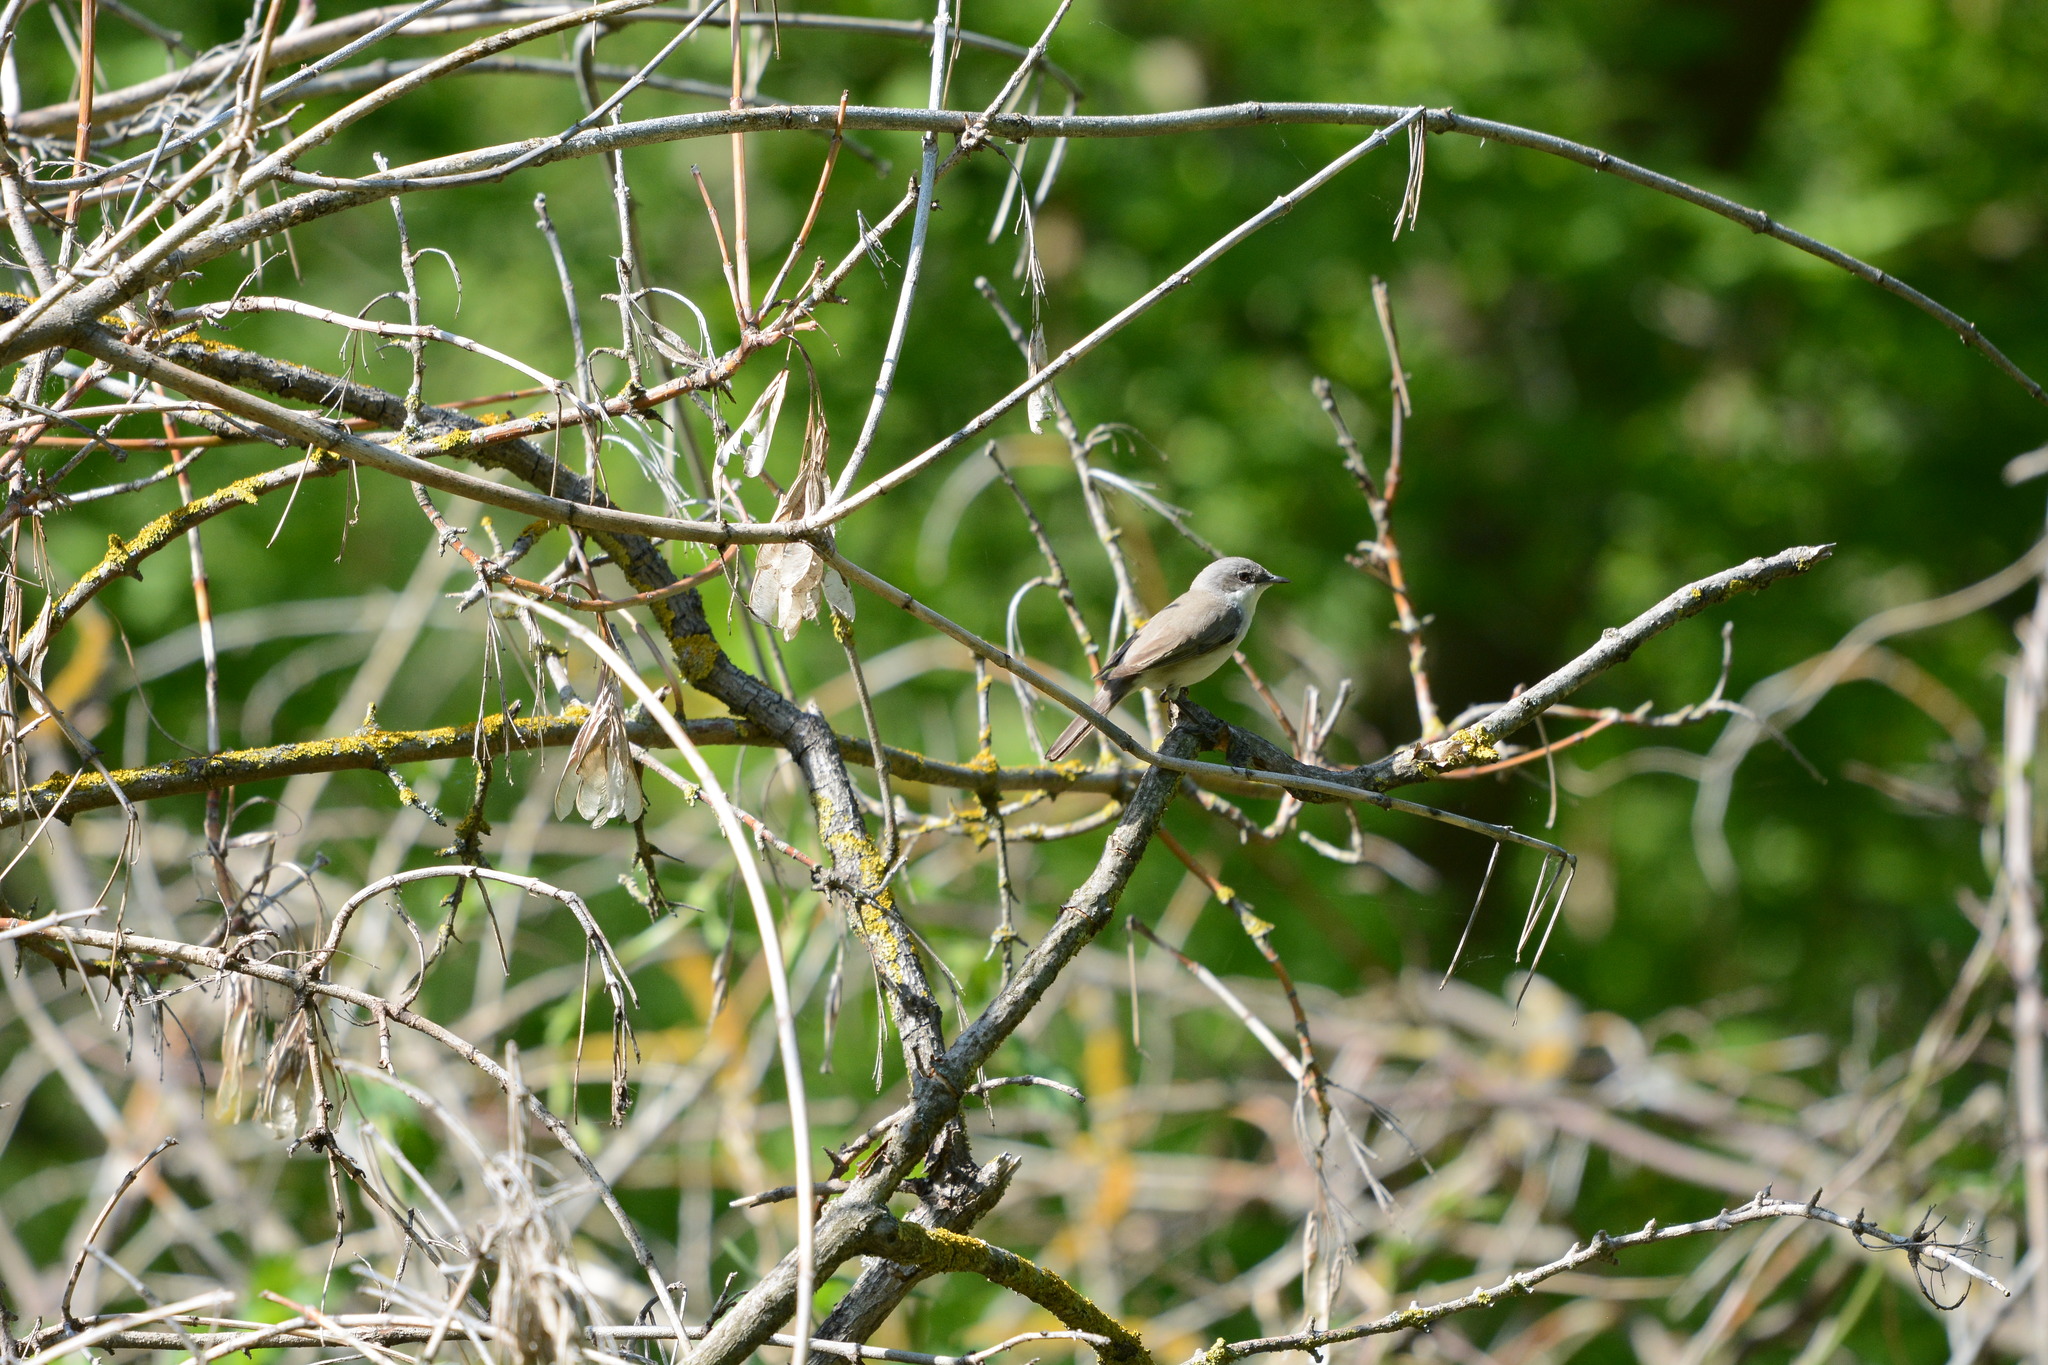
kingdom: Animalia
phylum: Chordata
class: Aves
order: Passeriformes
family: Sylviidae
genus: Sylvia
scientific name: Sylvia curruca
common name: Lesser whitethroat
